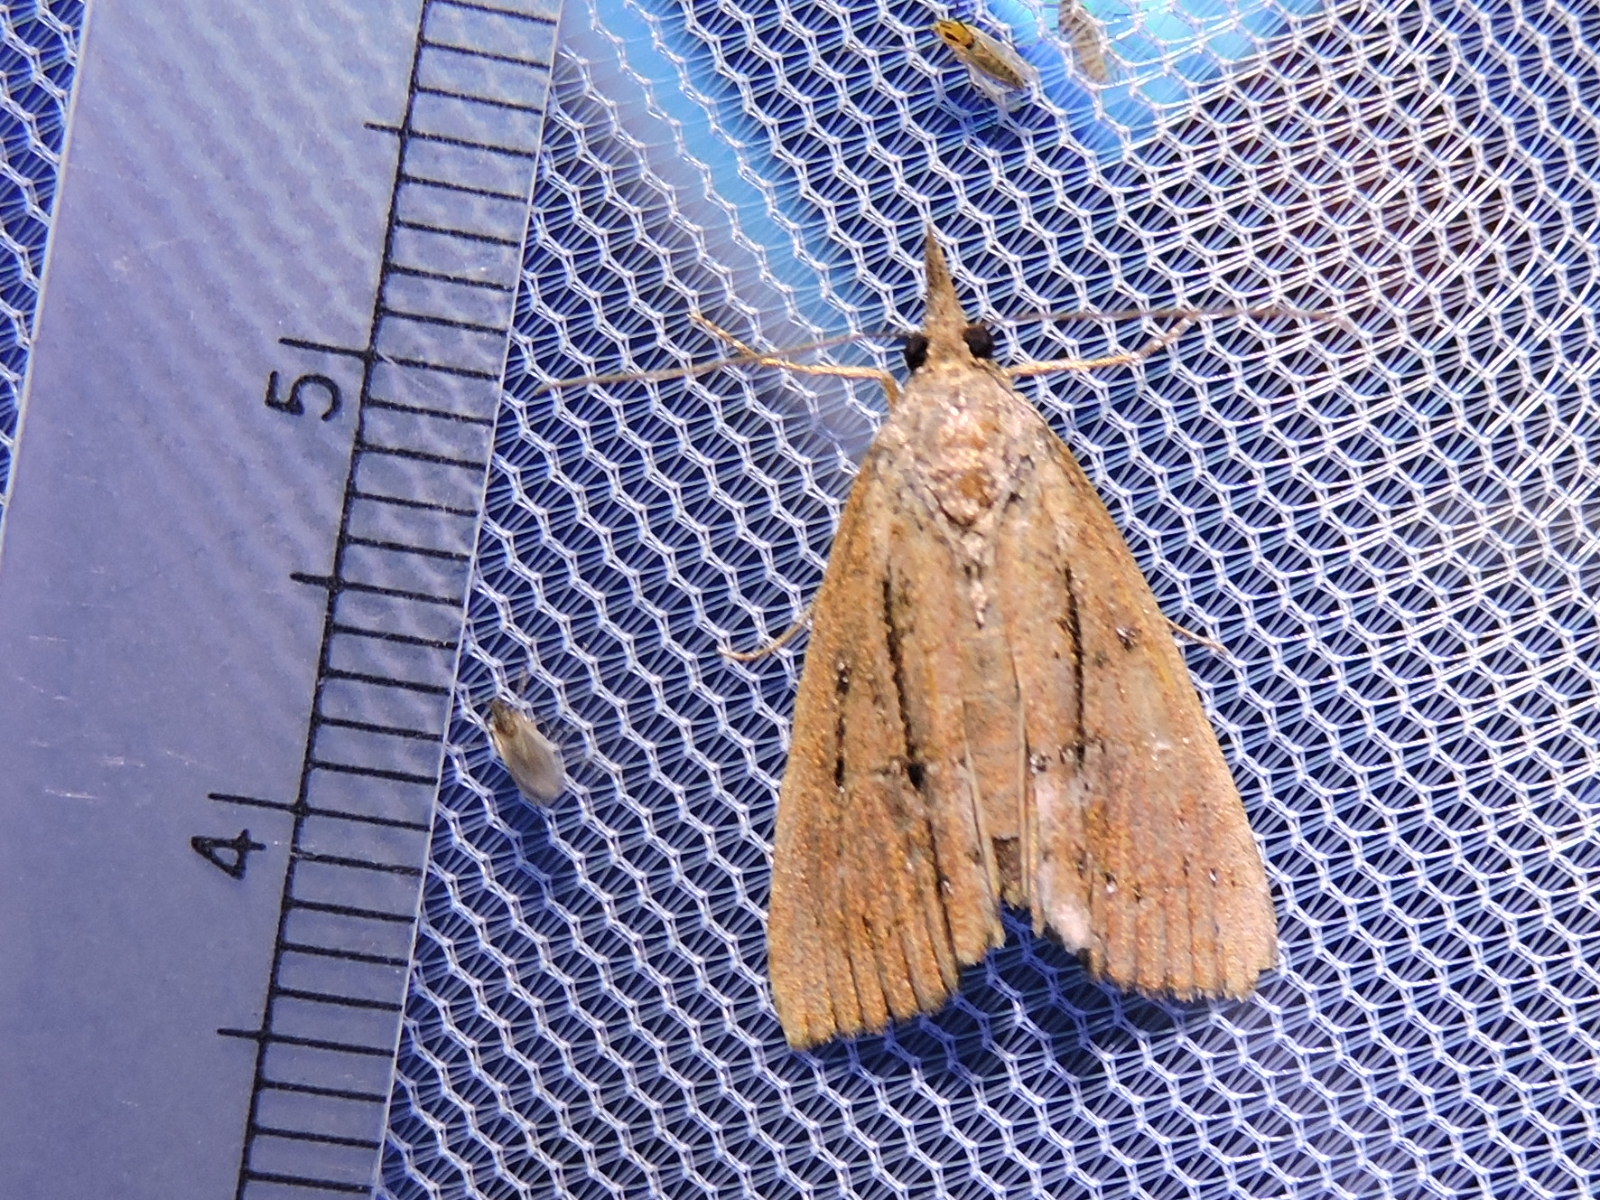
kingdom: Animalia
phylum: Arthropoda
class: Insecta
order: Lepidoptera
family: Erebidae
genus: Hypena
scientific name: Hypena scabra
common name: Green cloverworm
